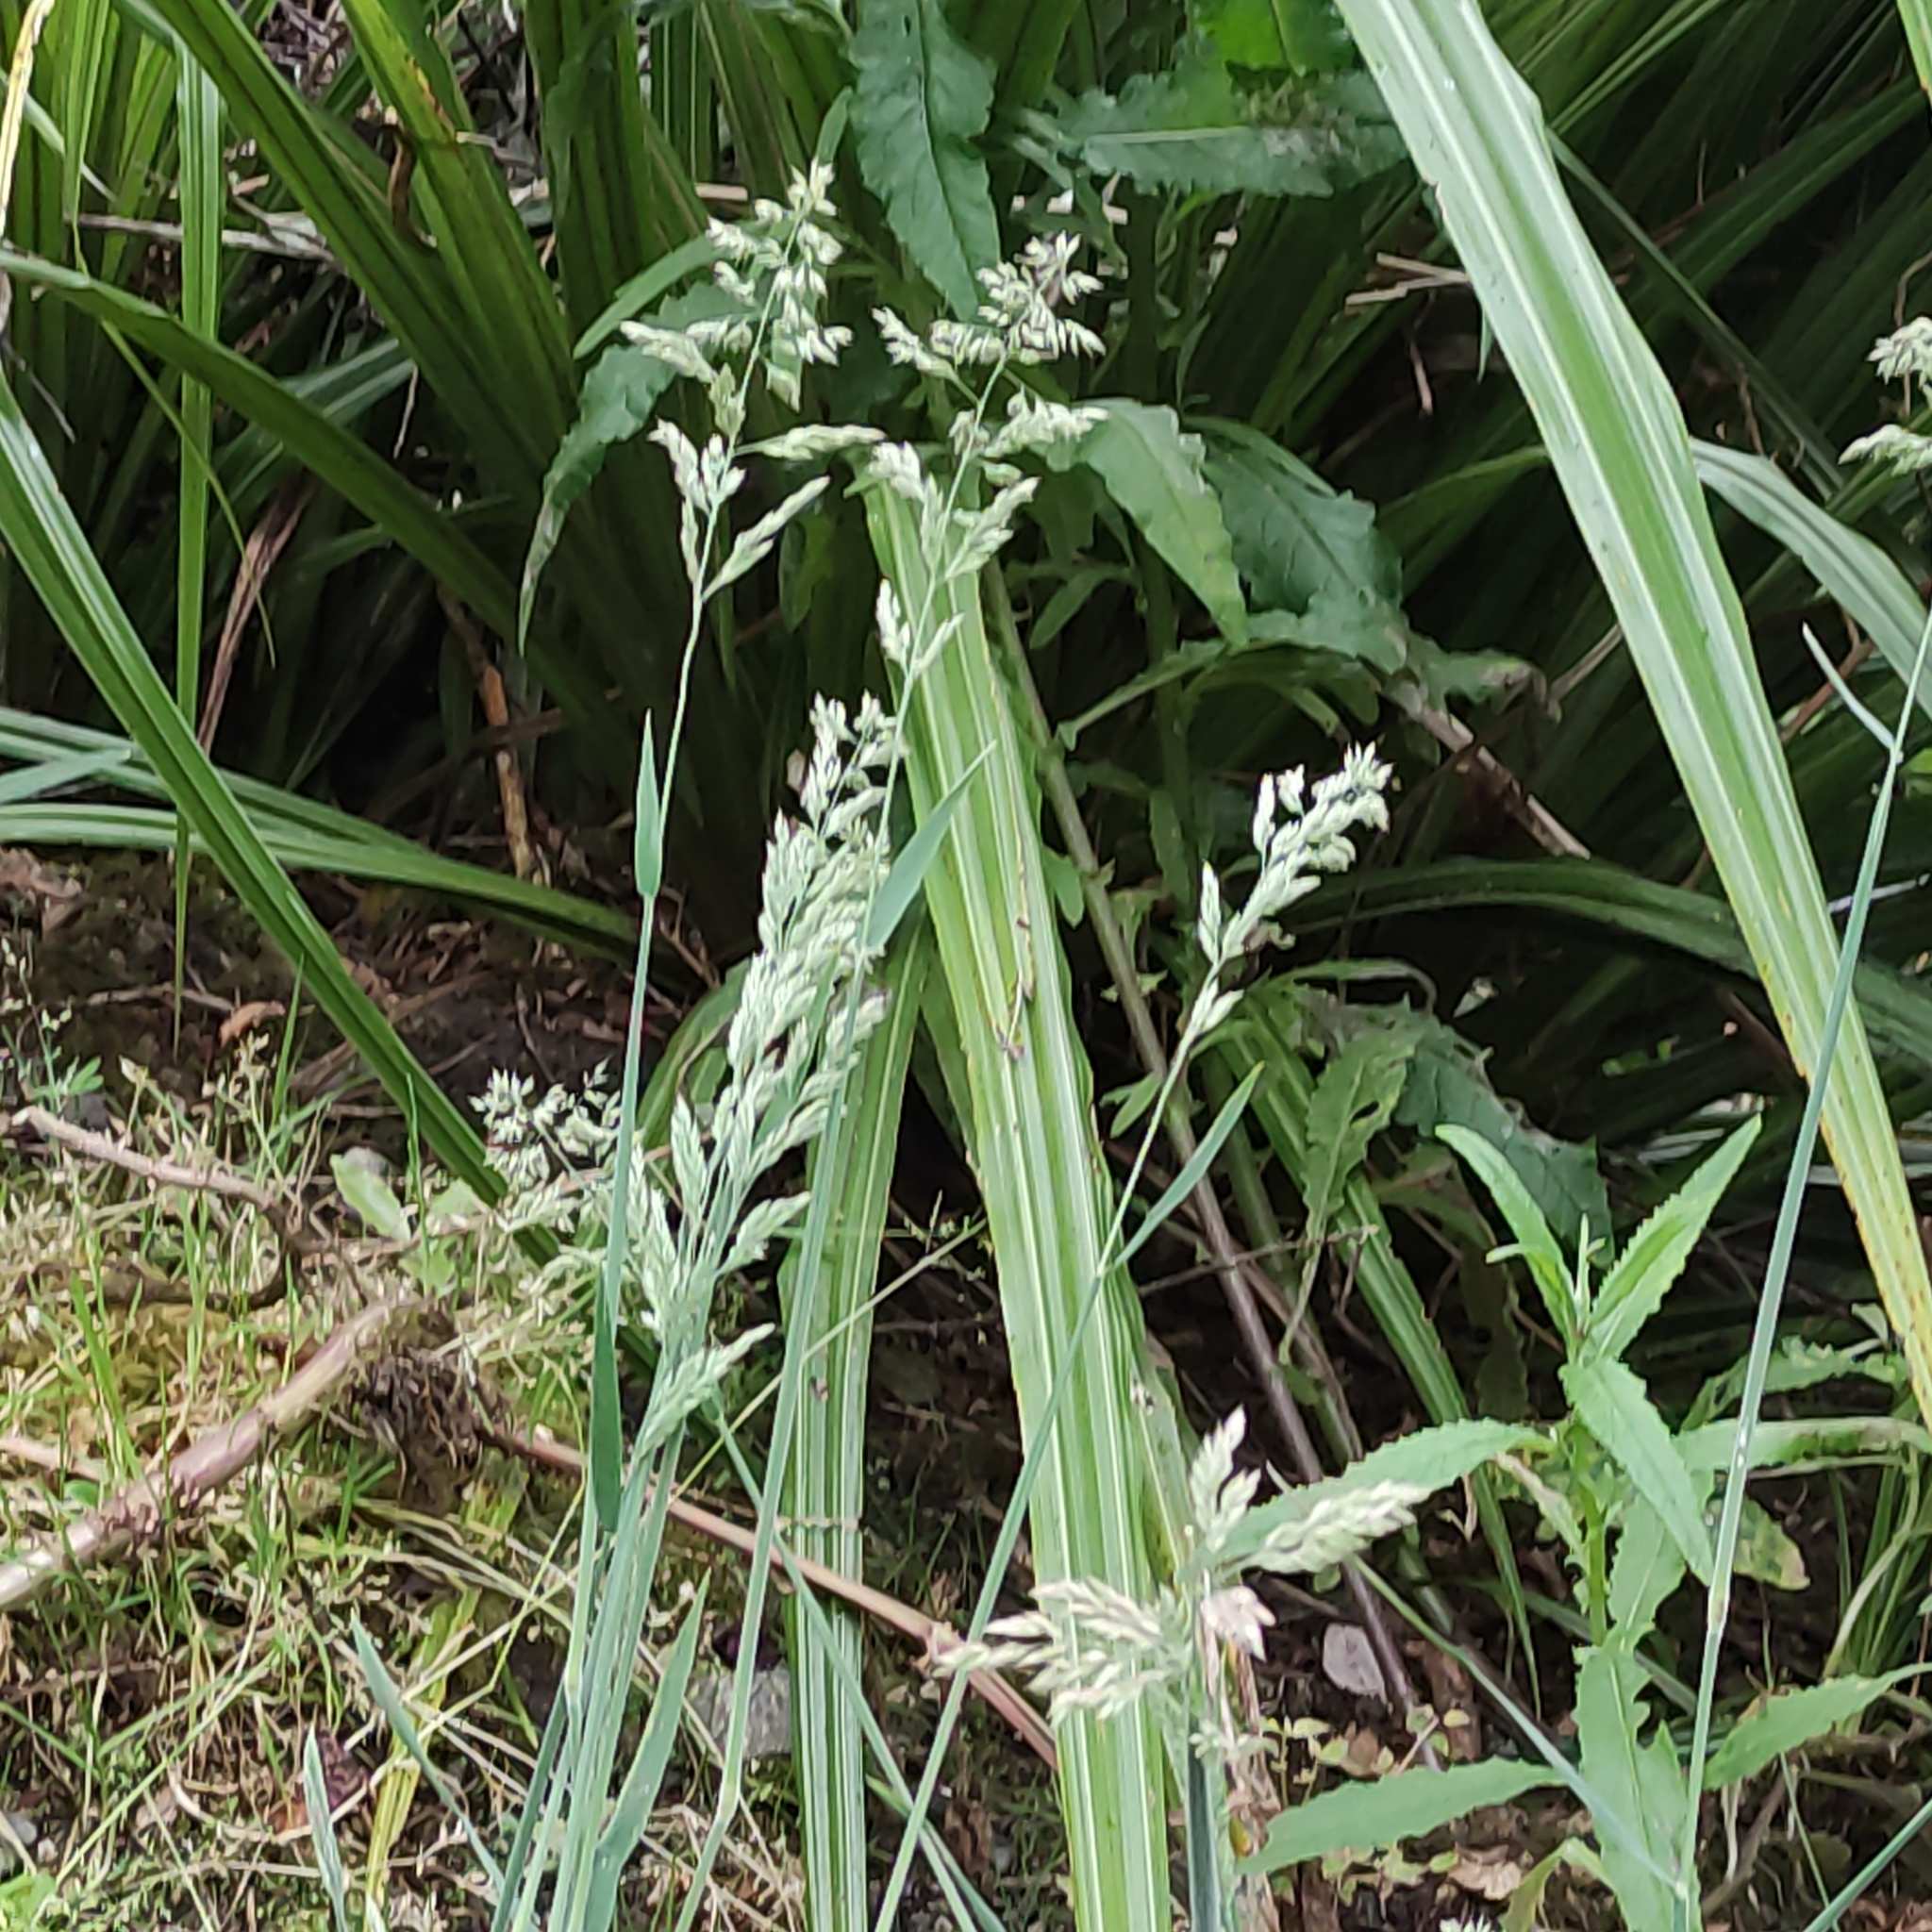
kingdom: Plantae
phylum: Tracheophyta
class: Liliopsida
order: Poales
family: Poaceae
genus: Holcus
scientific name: Holcus lanatus
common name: Yorkshire-fog
